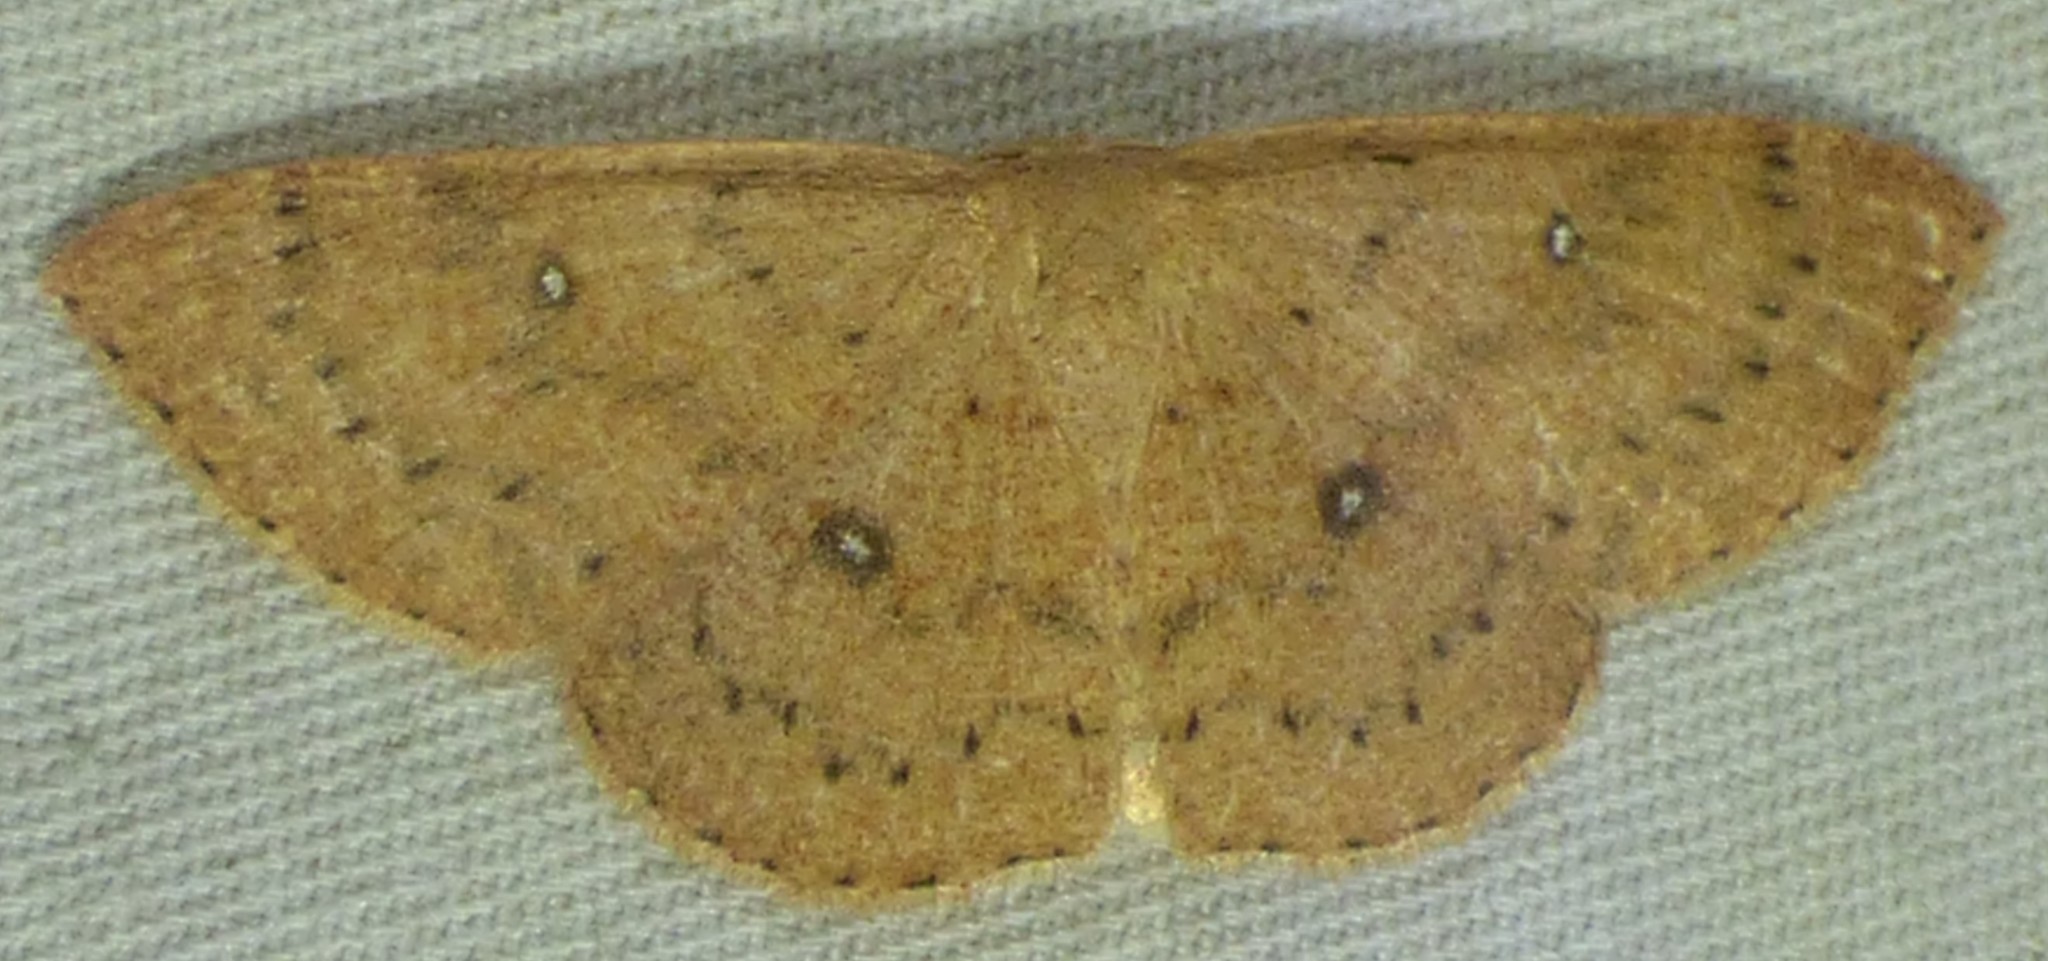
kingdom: Animalia
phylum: Arthropoda
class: Insecta
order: Lepidoptera
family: Geometridae
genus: Cyclophora
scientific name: Cyclophora packardi
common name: Packard's wave
